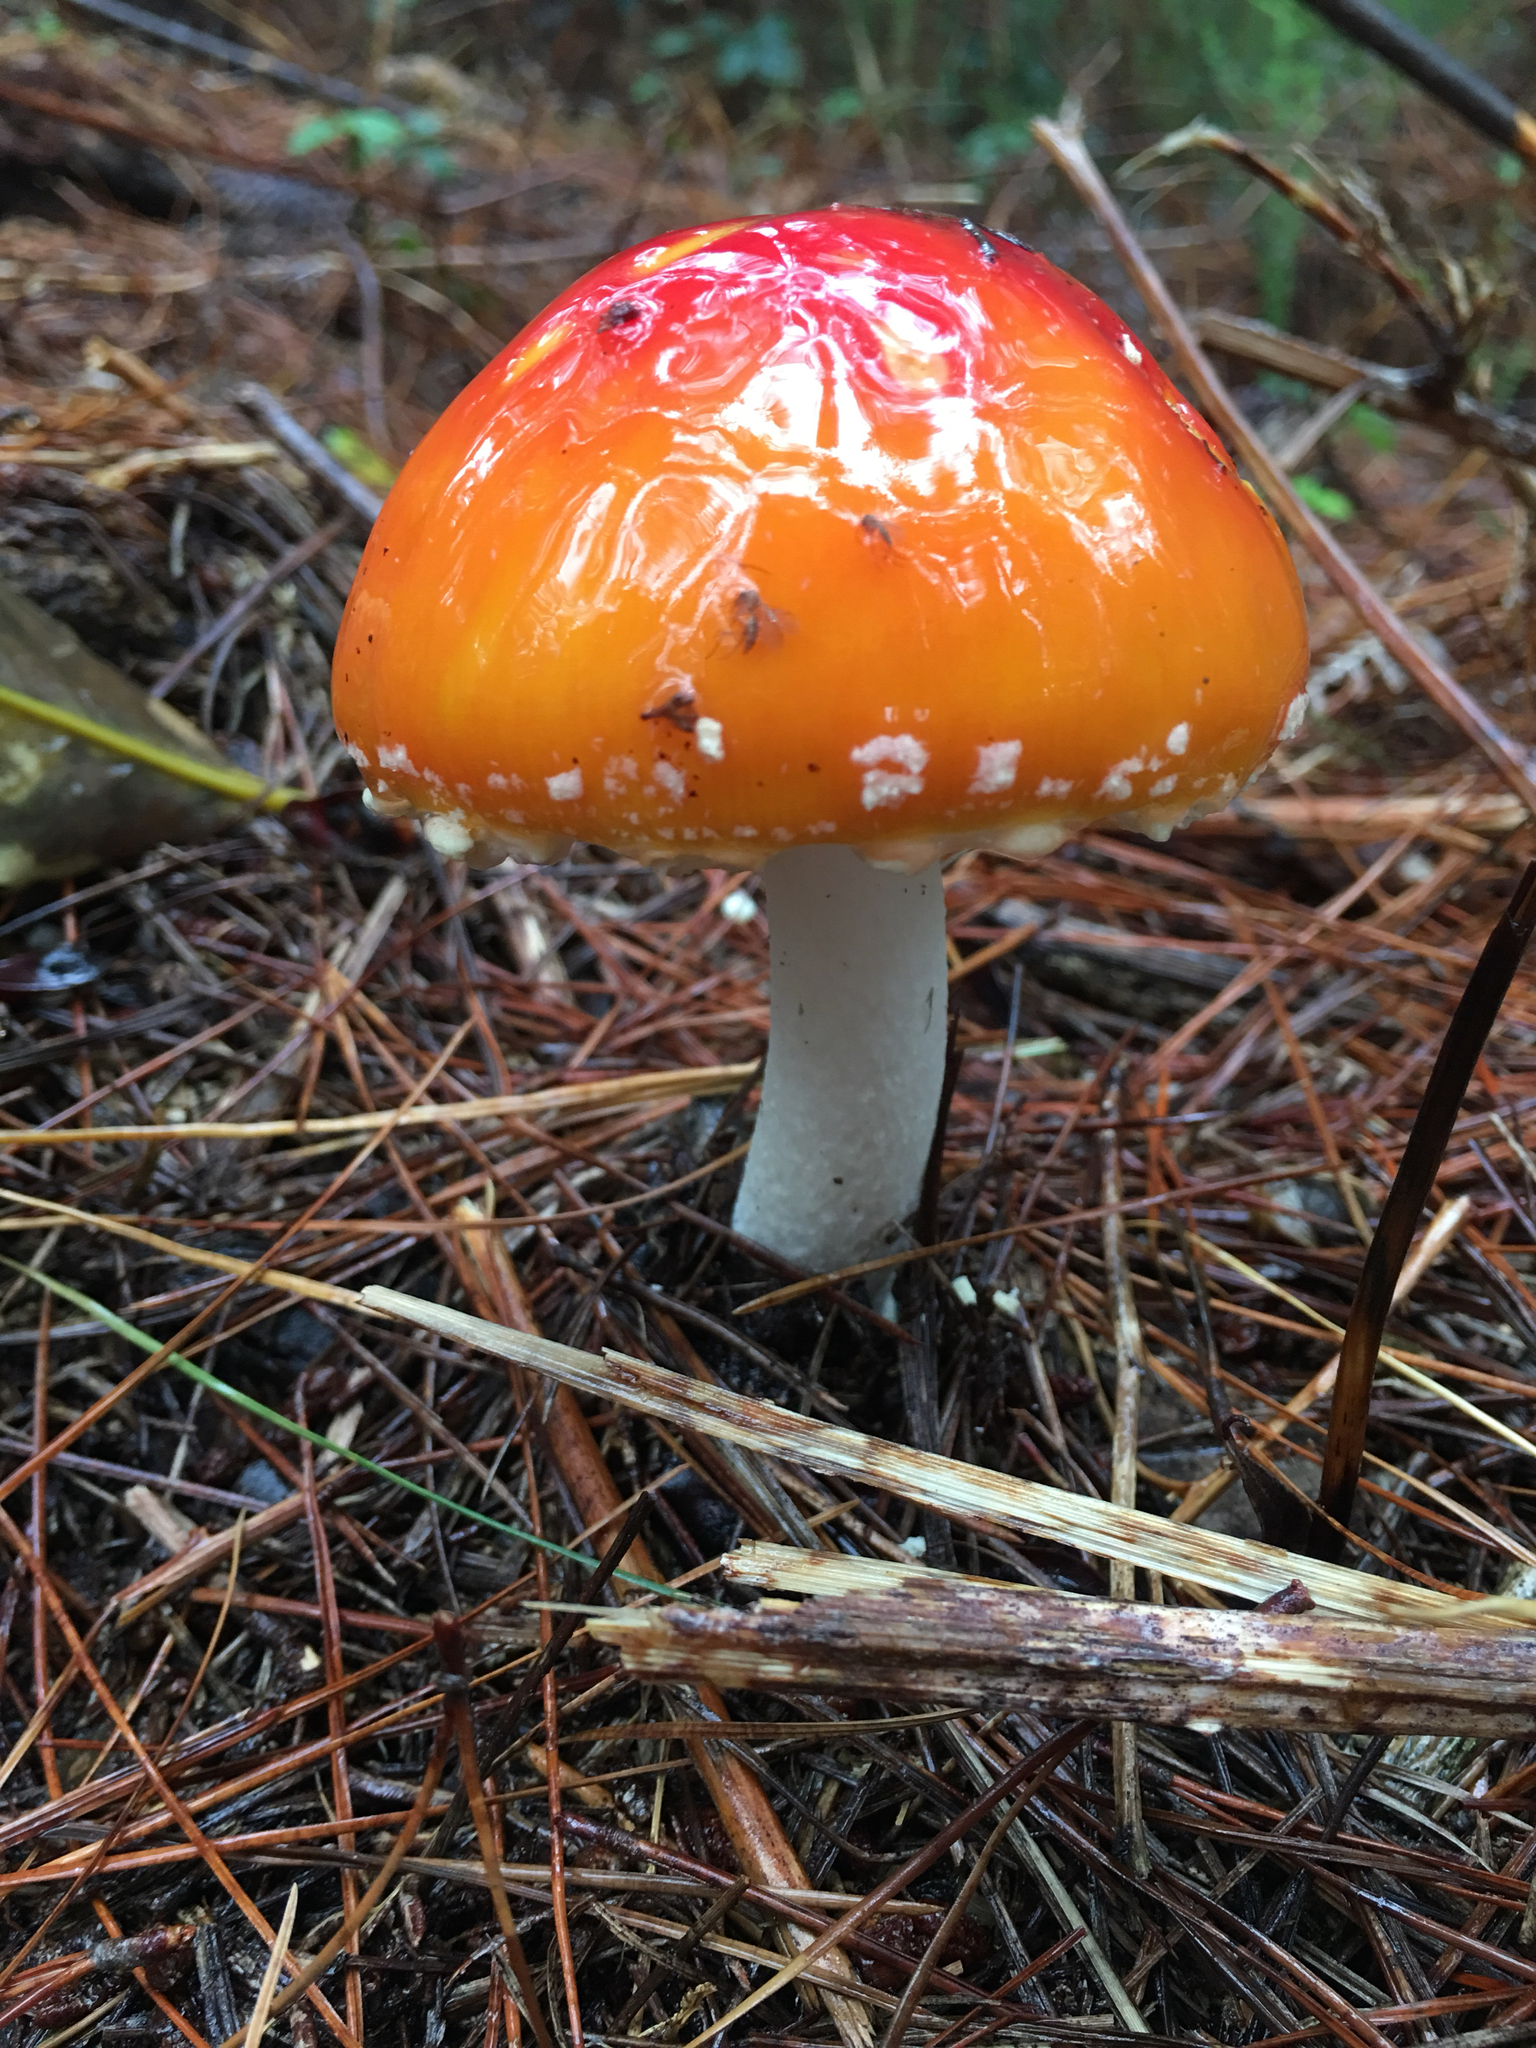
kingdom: Fungi
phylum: Basidiomycota
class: Agaricomycetes
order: Agaricales
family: Amanitaceae
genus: Amanita
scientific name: Amanita muscaria
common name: Fly agaric
